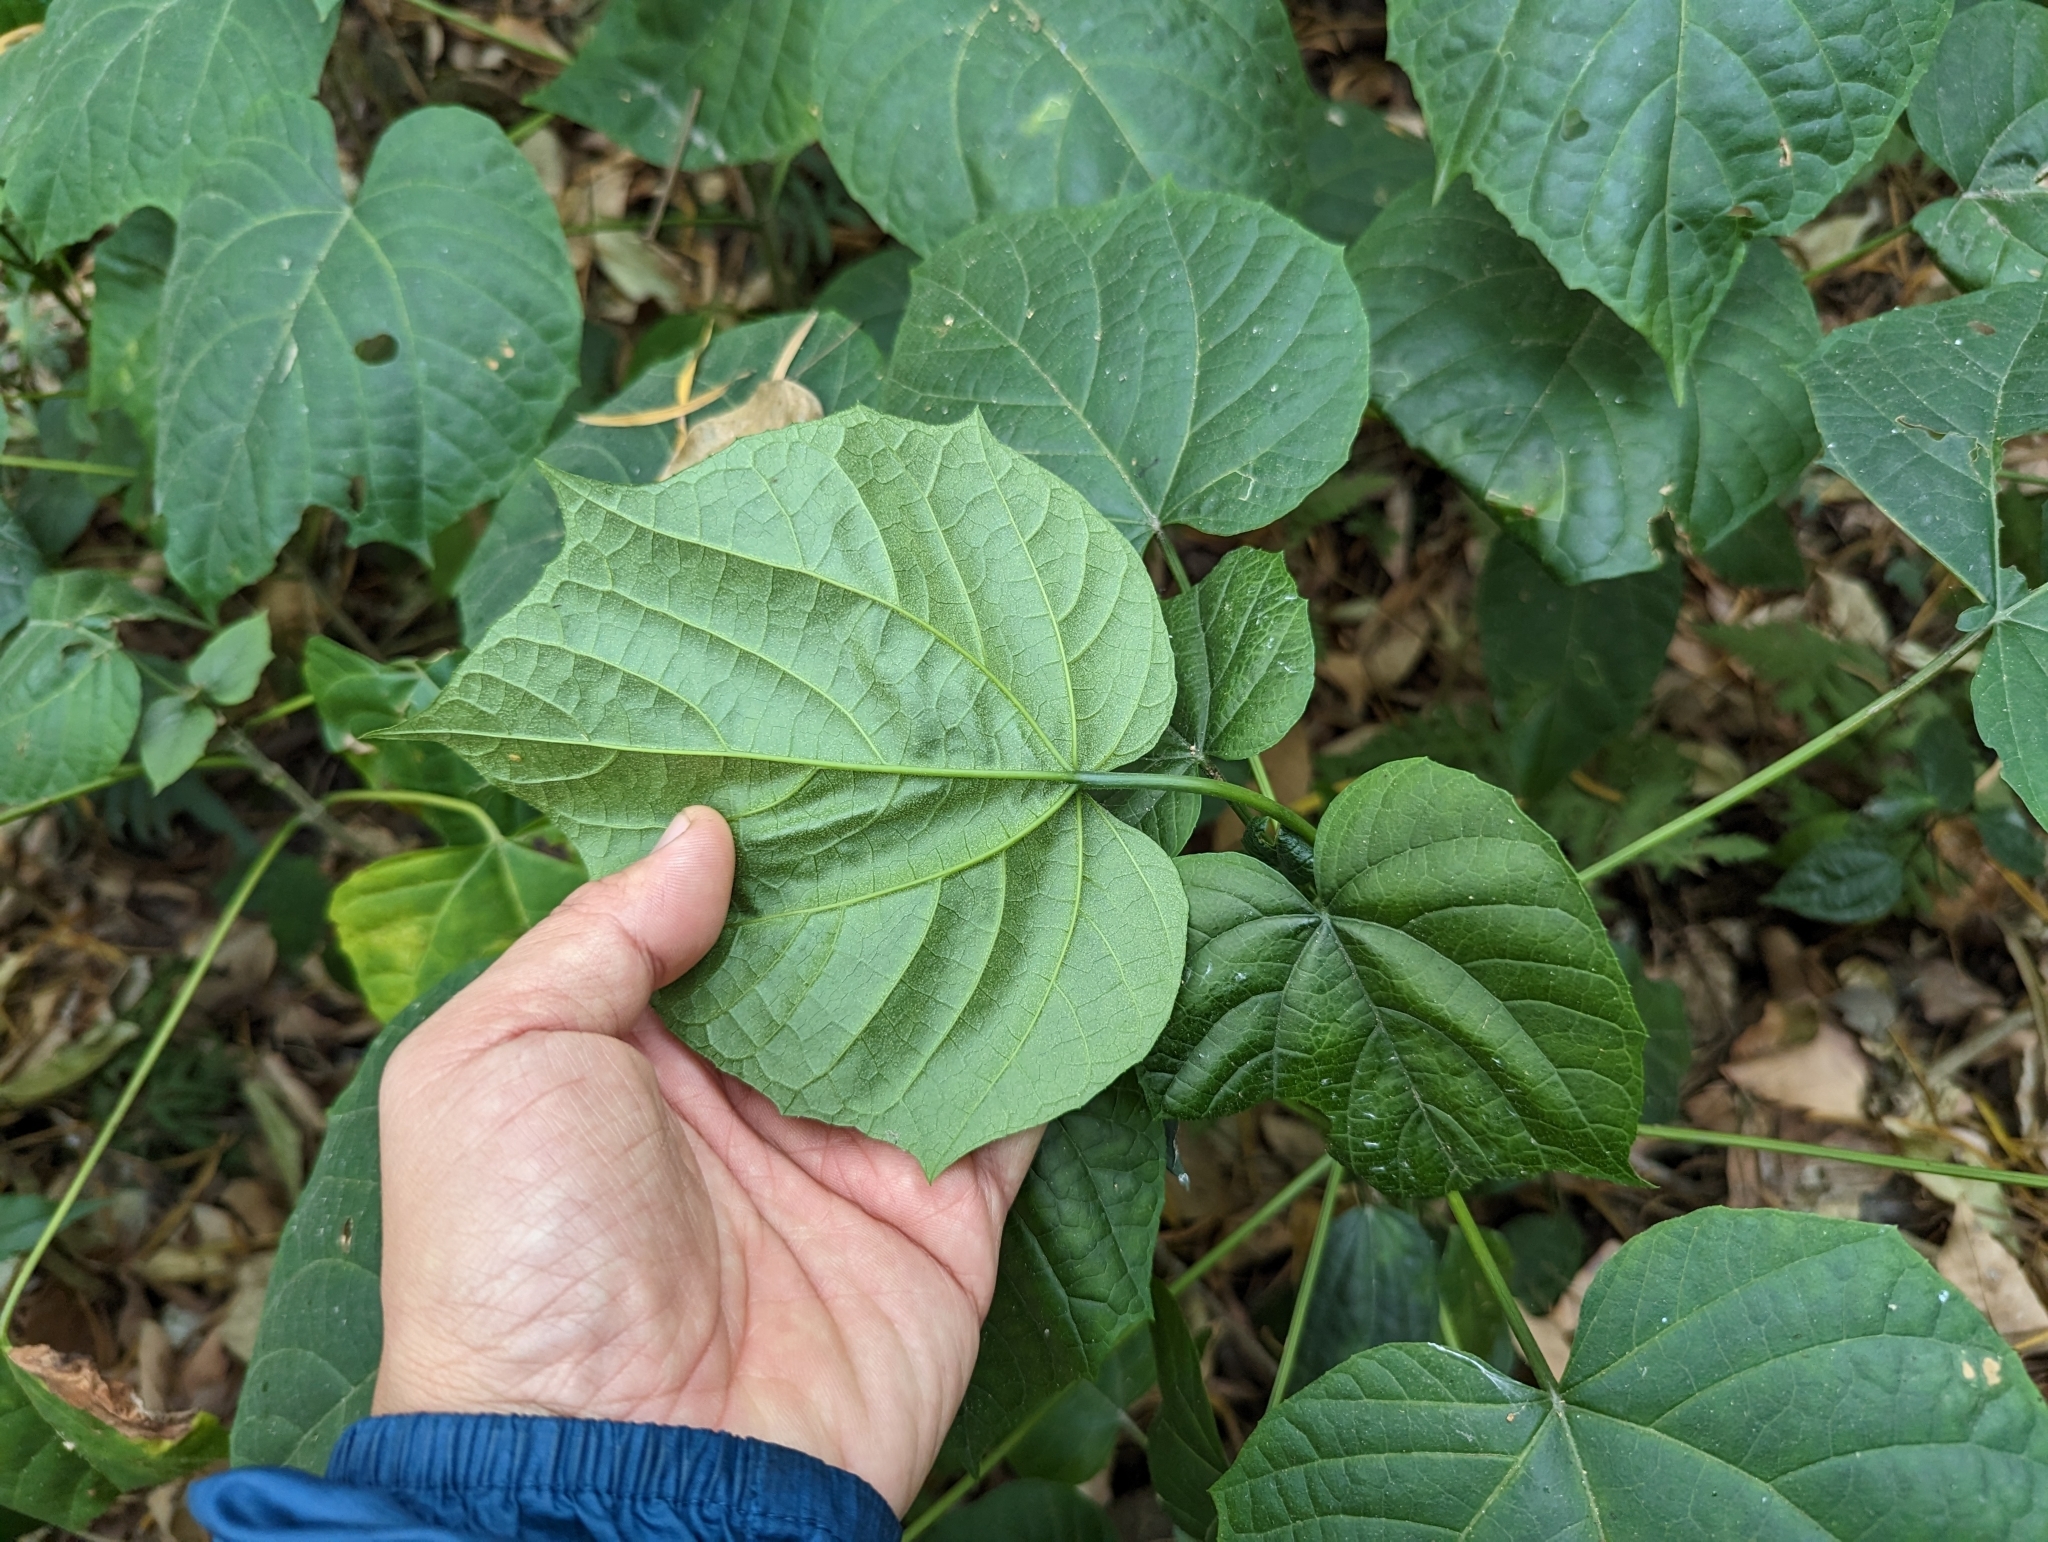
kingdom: Plantae
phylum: Tracheophyta
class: Magnoliopsida
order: Lamiales
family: Lamiaceae
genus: Clerodendrum
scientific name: Clerodendrum japonicum
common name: Japanese glorybower
